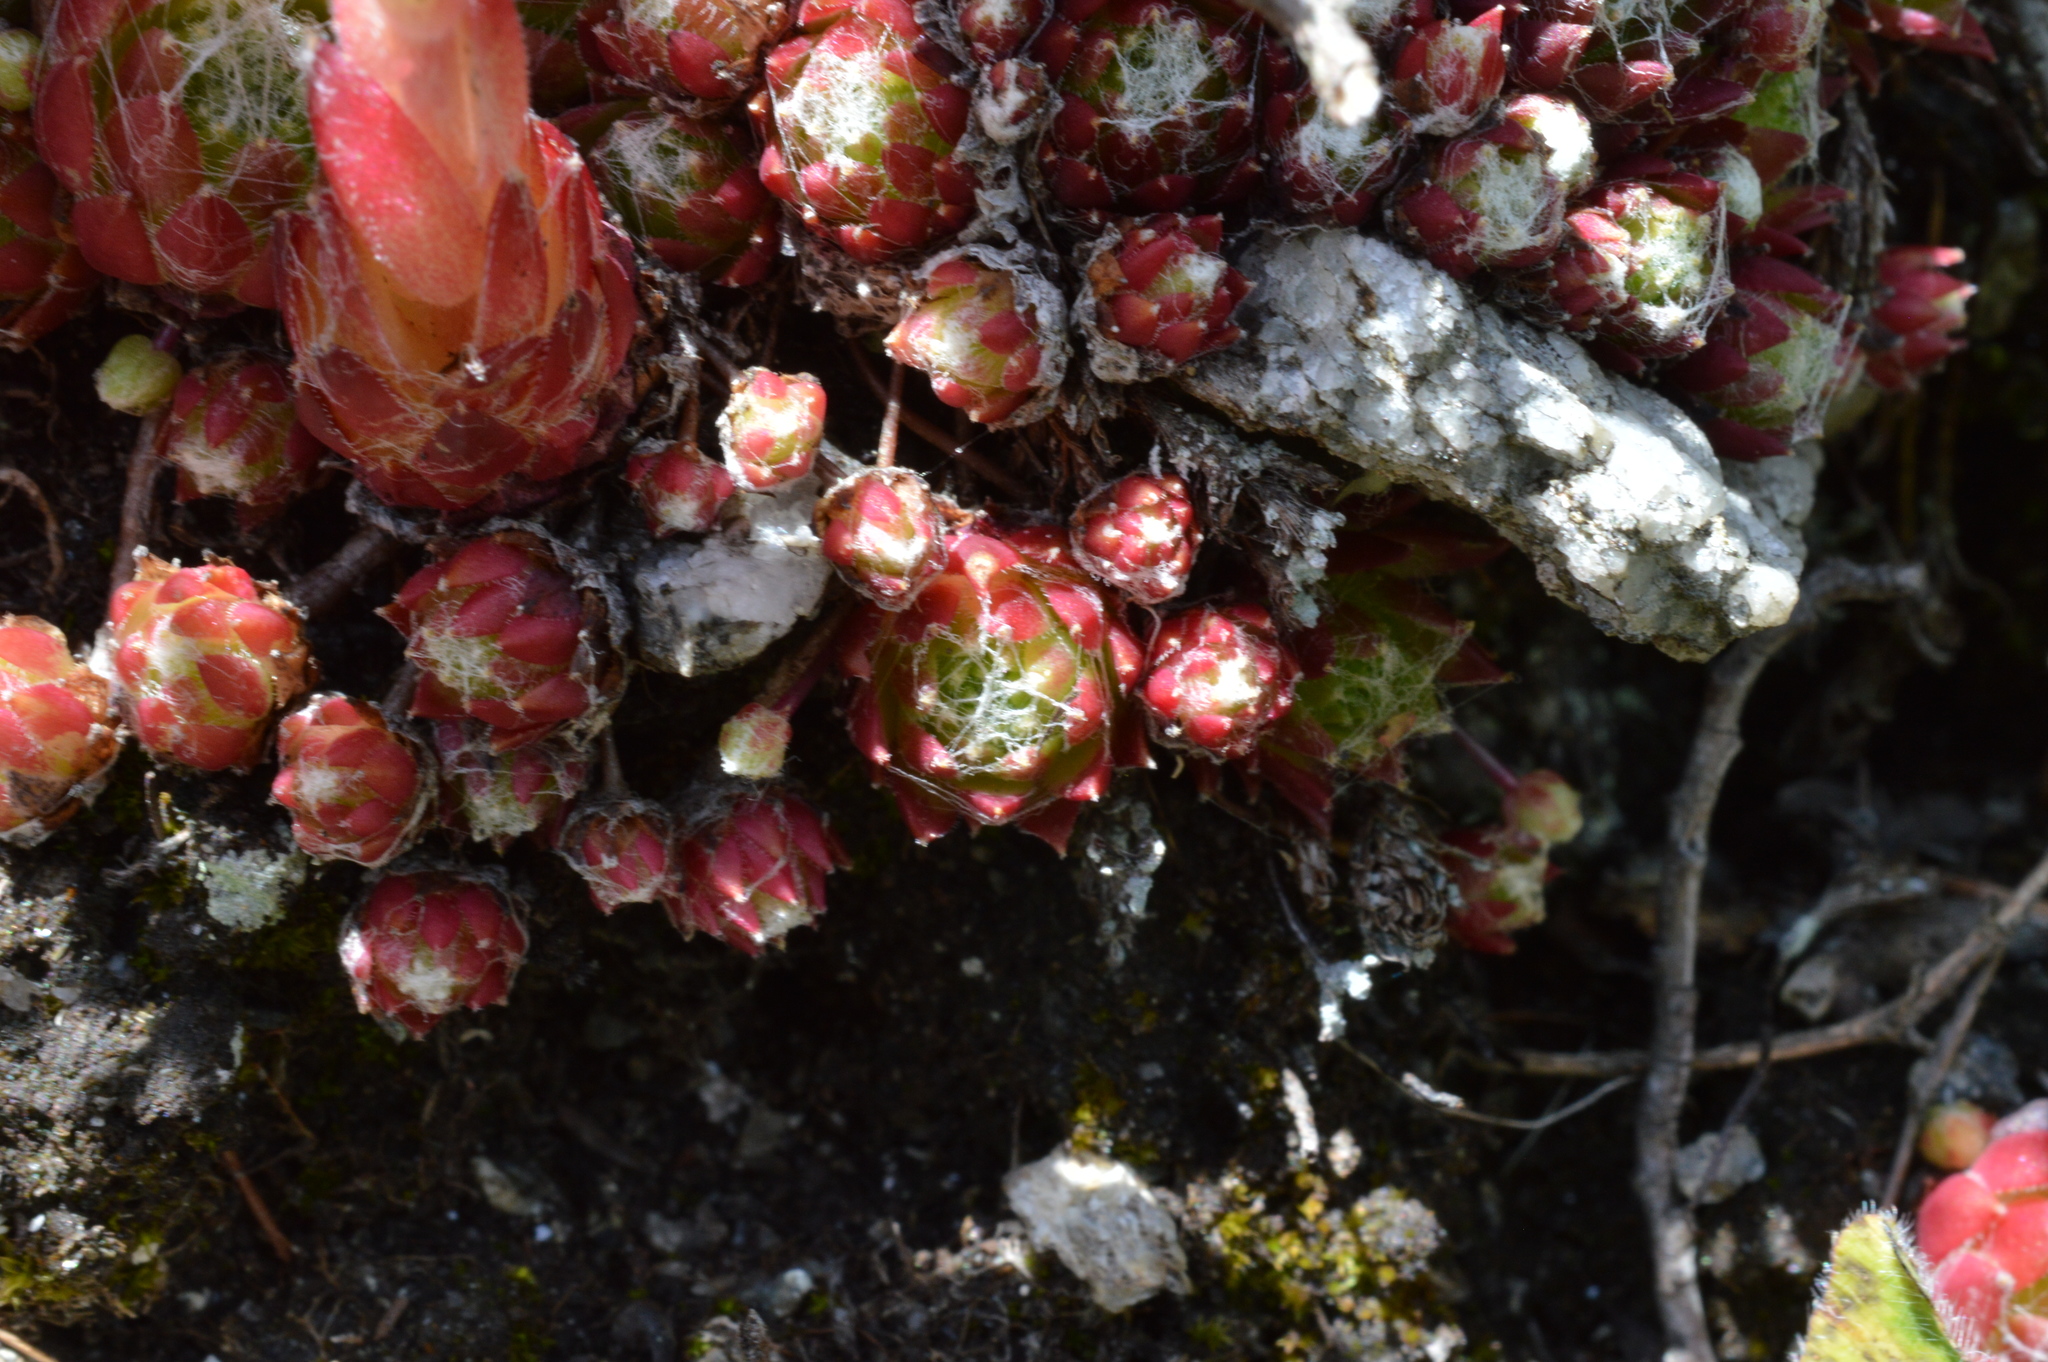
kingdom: Plantae
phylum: Tracheophyta
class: Magnoliopsida
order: Saxifragales
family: Crassulaceae
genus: Sempervivum
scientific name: Sempervivum arachnoideum
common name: Cobweb house-leek
